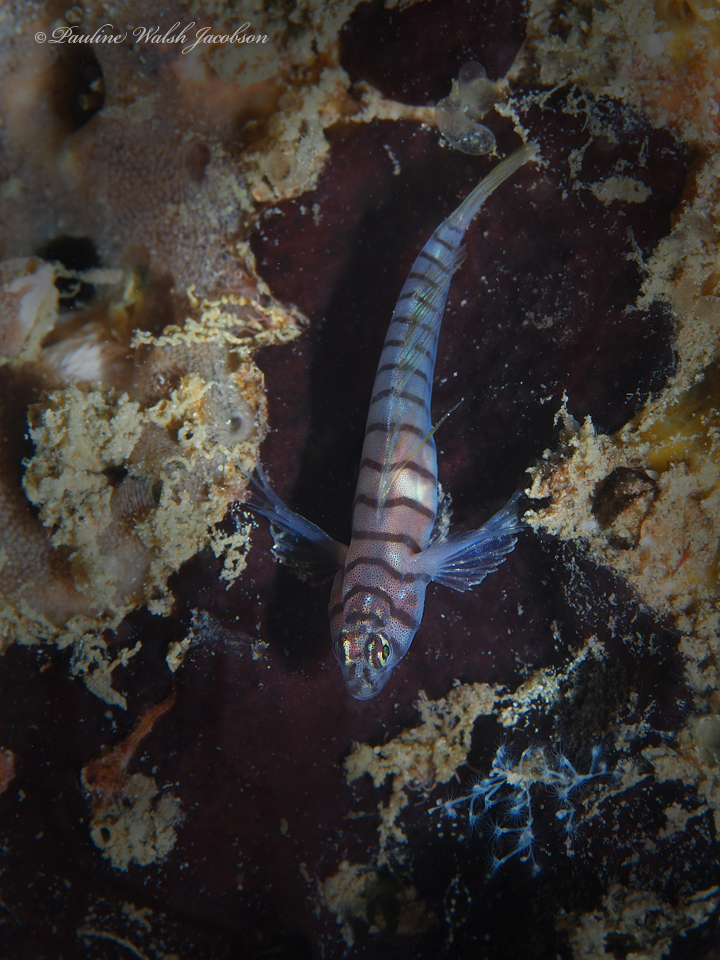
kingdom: Animalia
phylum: Chordata
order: Perciformes
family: Gobiidae
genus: Tigrigobius
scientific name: Tigrigobius macrodon
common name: Tiger goby
